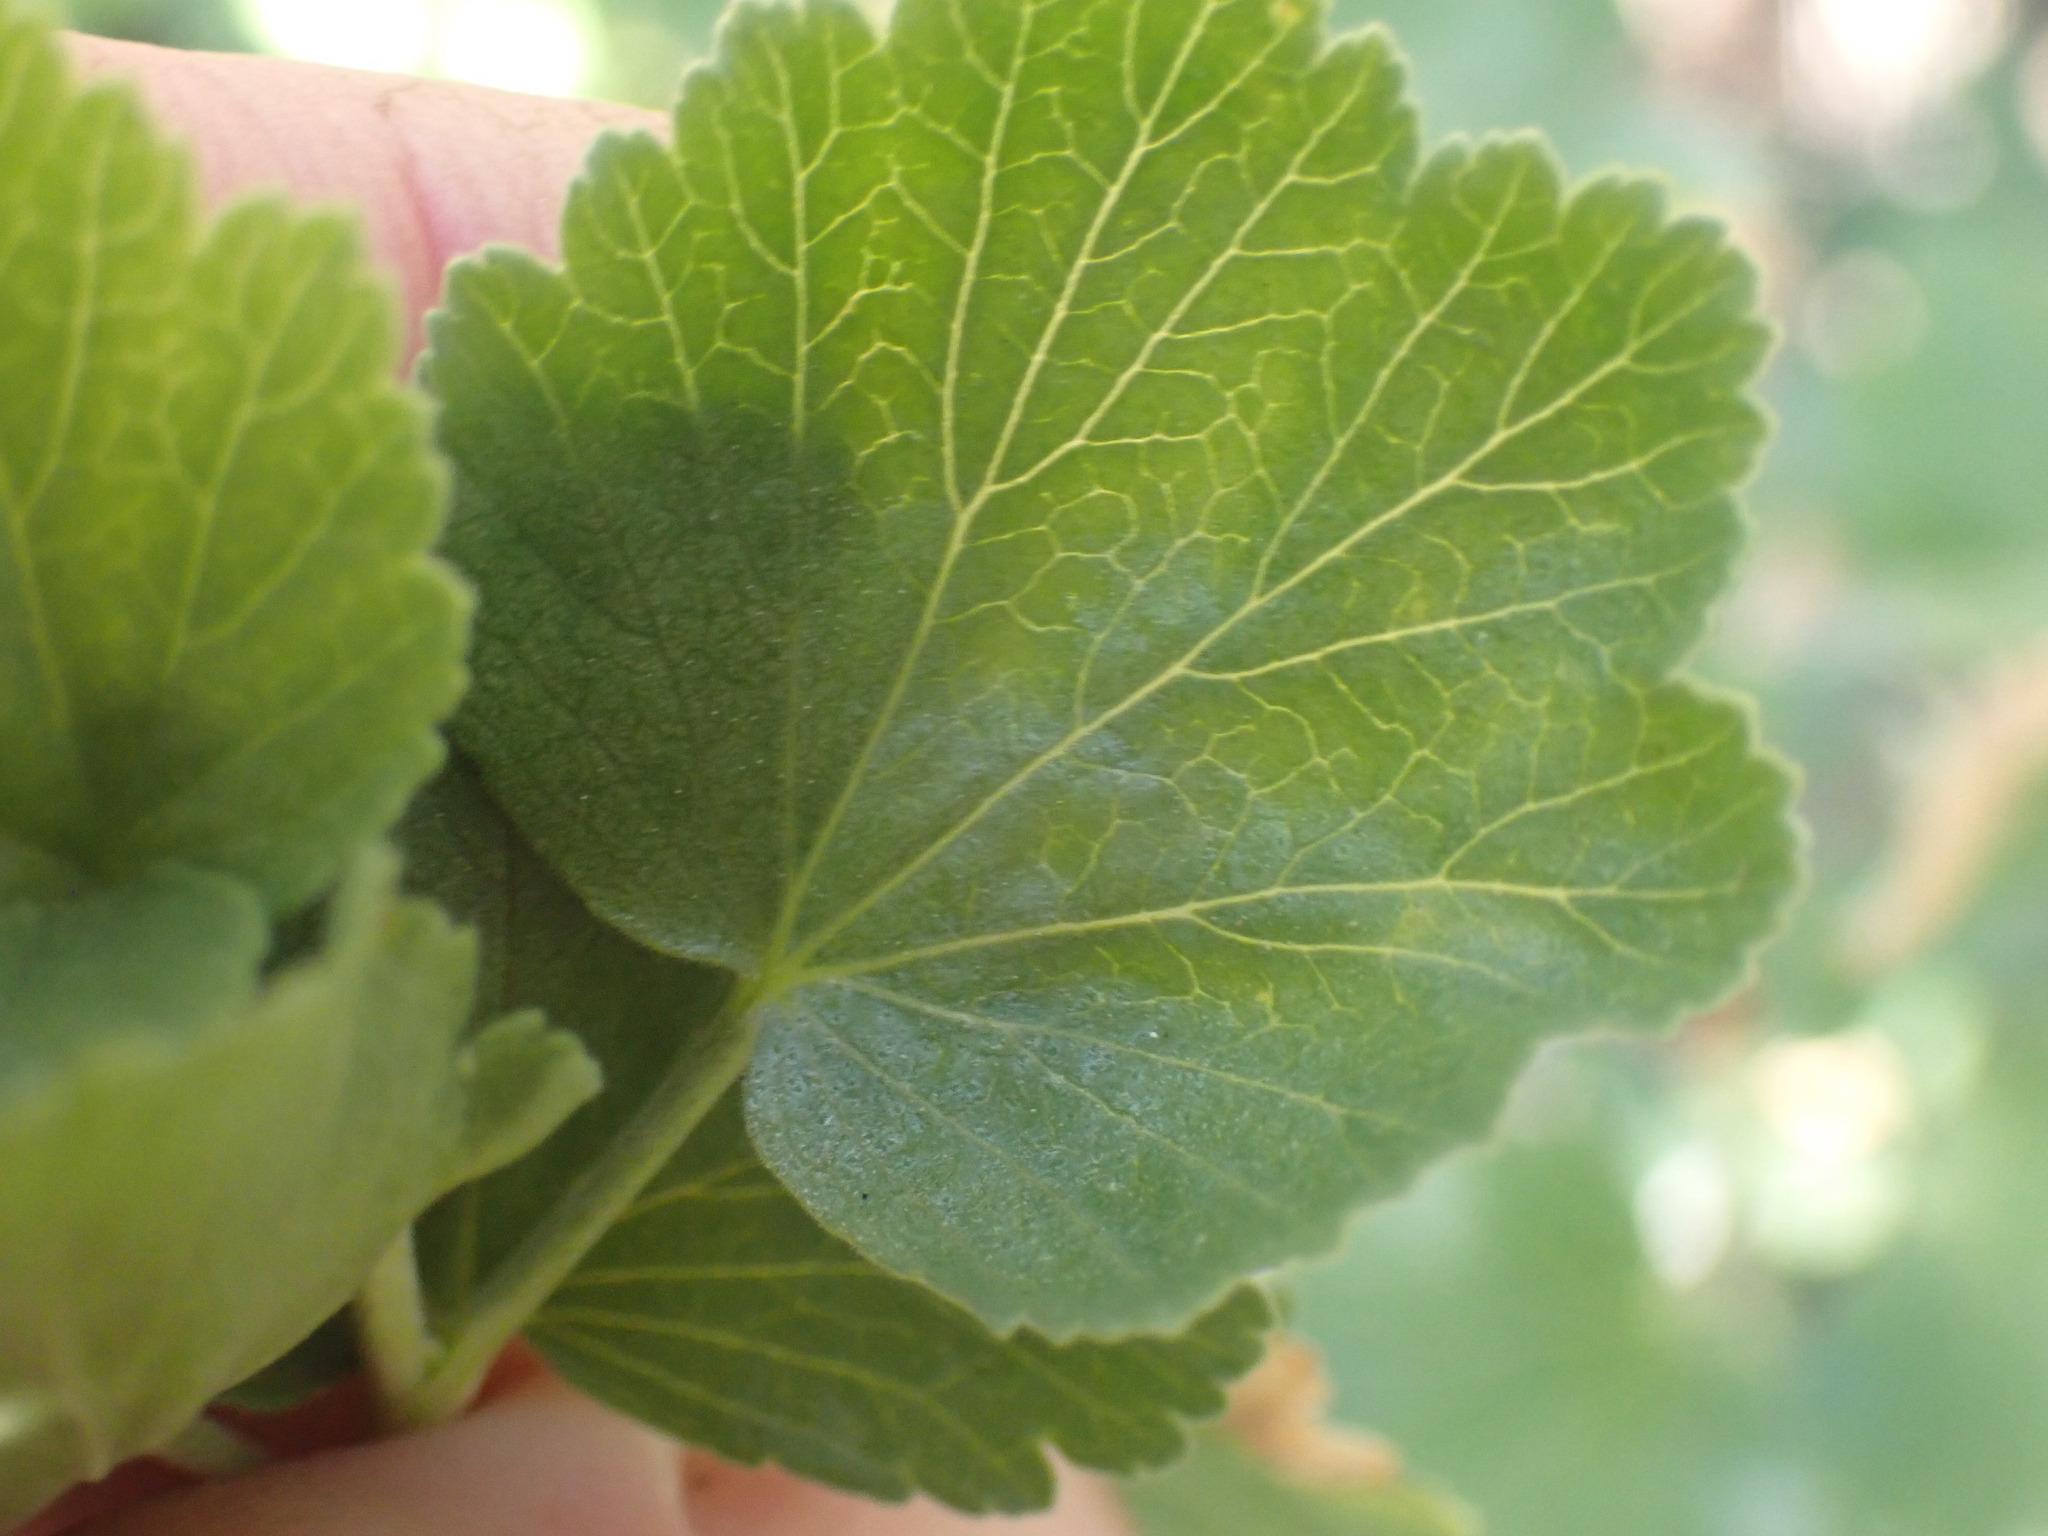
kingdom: Plantae
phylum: Tracheophyta
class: Magnoliopsida
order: Saxifragales
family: Grossulariaceae
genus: Ribes
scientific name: Ribes cereum
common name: Wax currant
